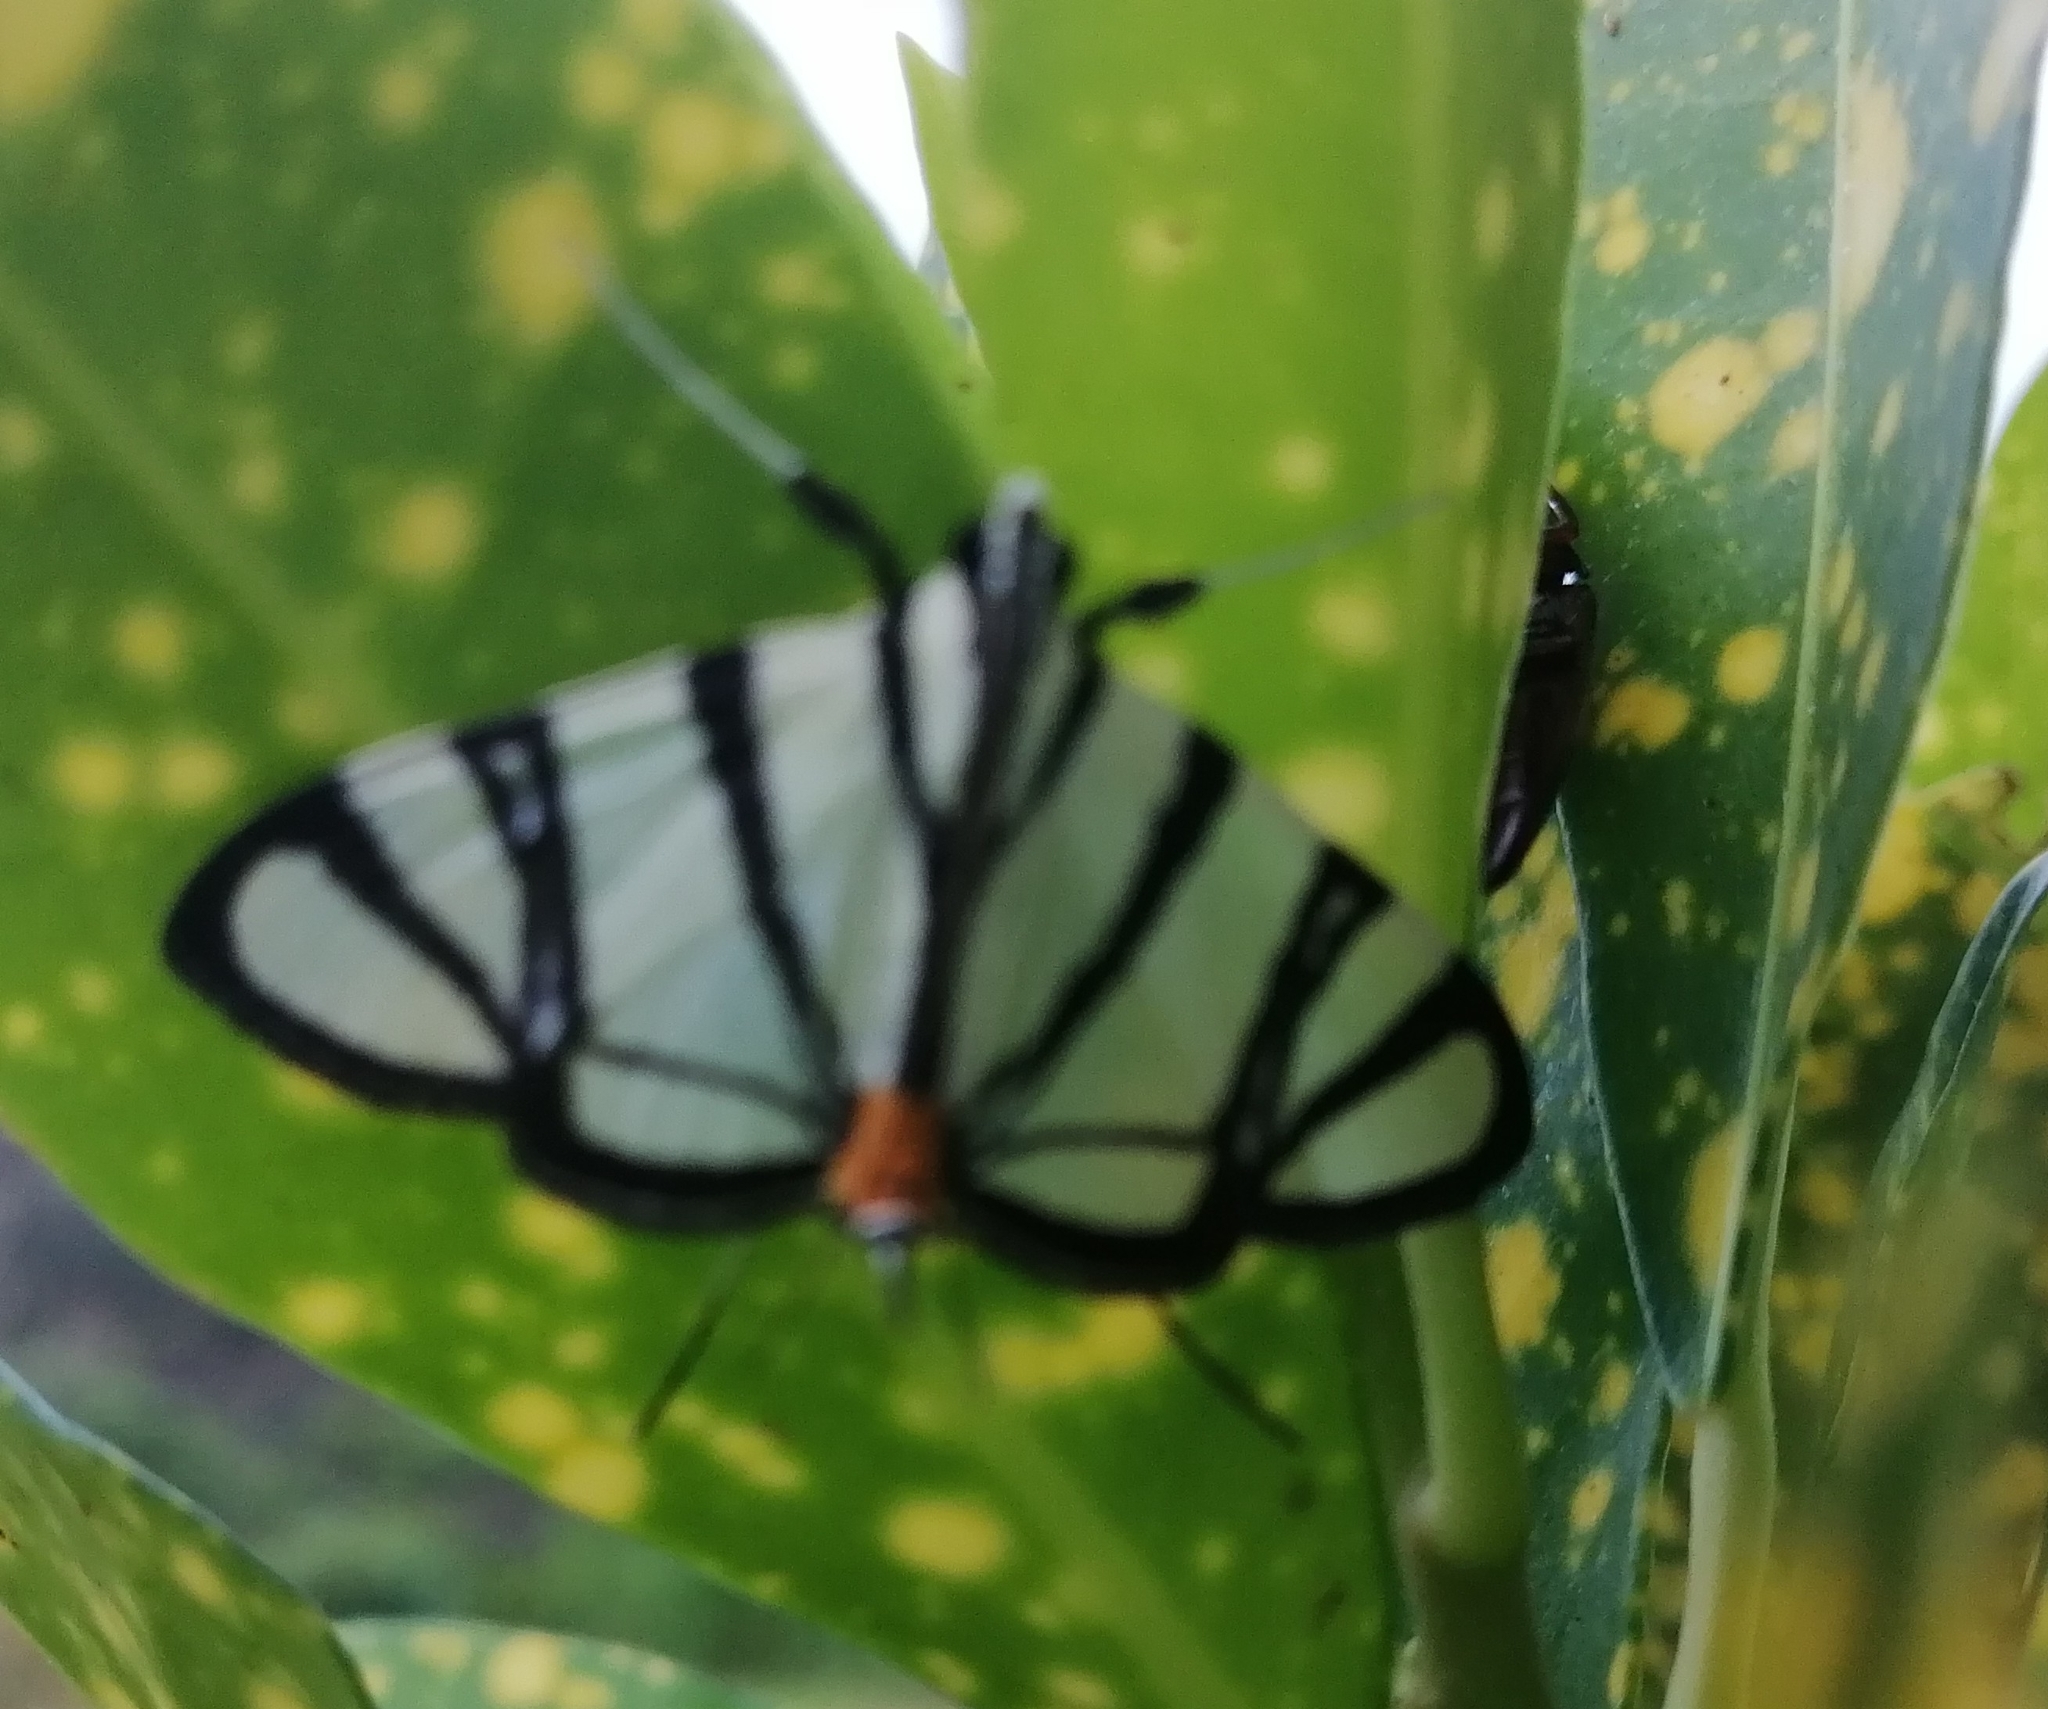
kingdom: Animalia
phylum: Arthropoda
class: Insecta
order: Lepidoptera
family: Crambidae
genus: Conchylodes
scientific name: Conchylodes nolckenialis
